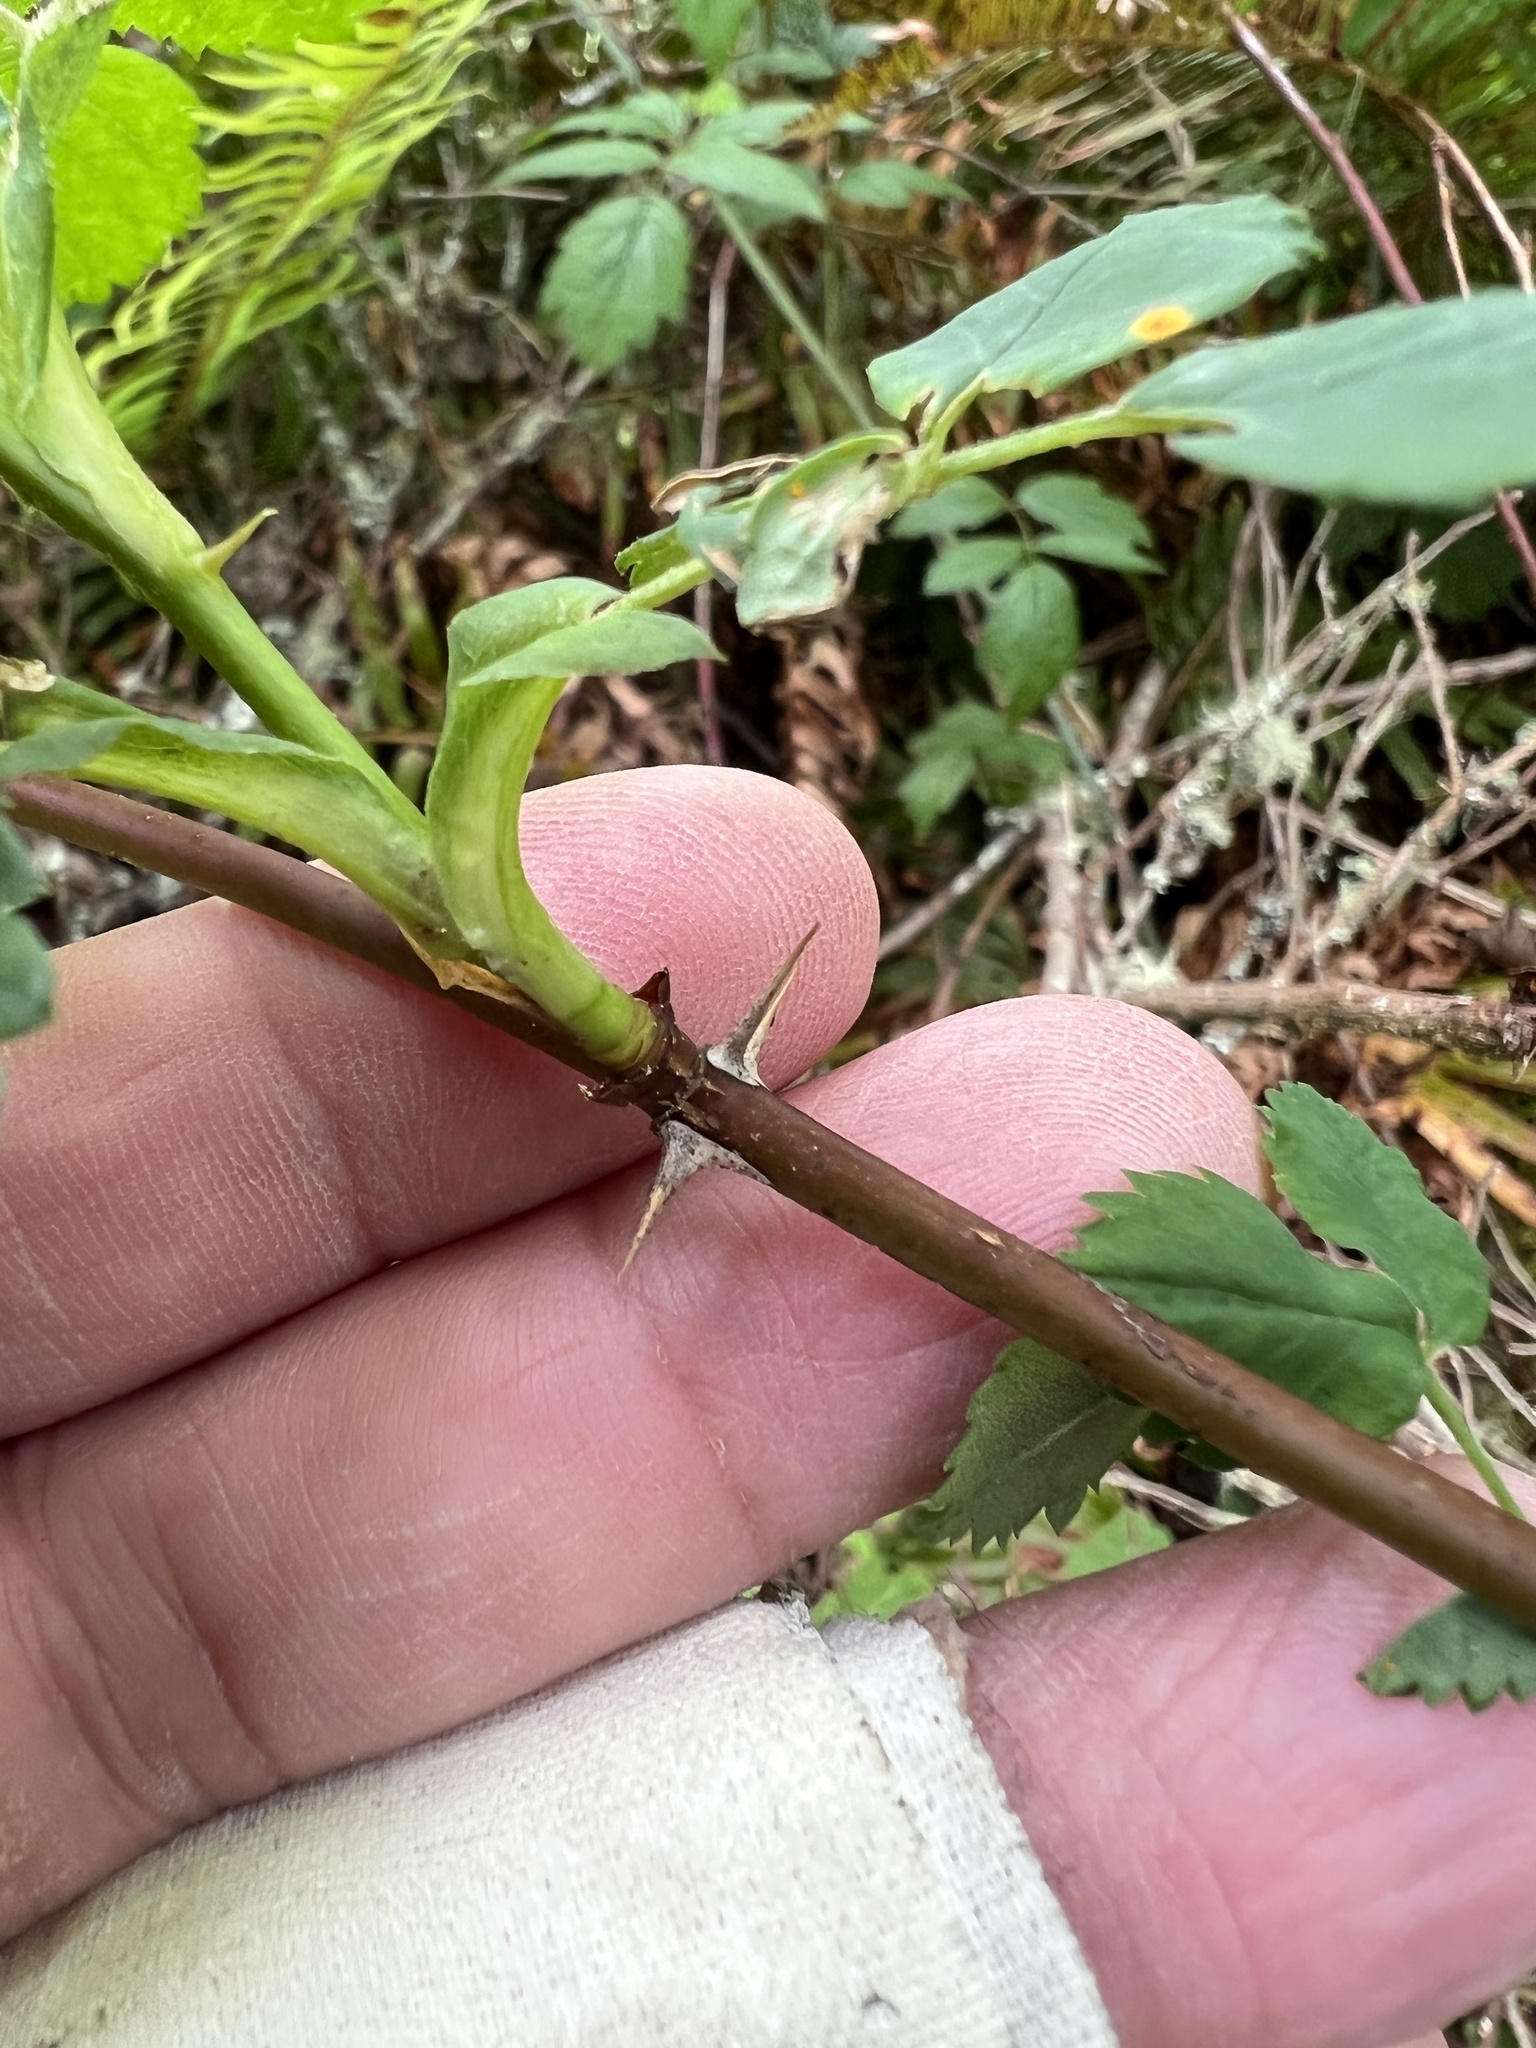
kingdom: Plantae
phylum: Tracheophyta
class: Magnoliopsida
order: Rosales
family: Rosaceae
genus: Rosa
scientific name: Rosa nutkana
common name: Nootka rose
